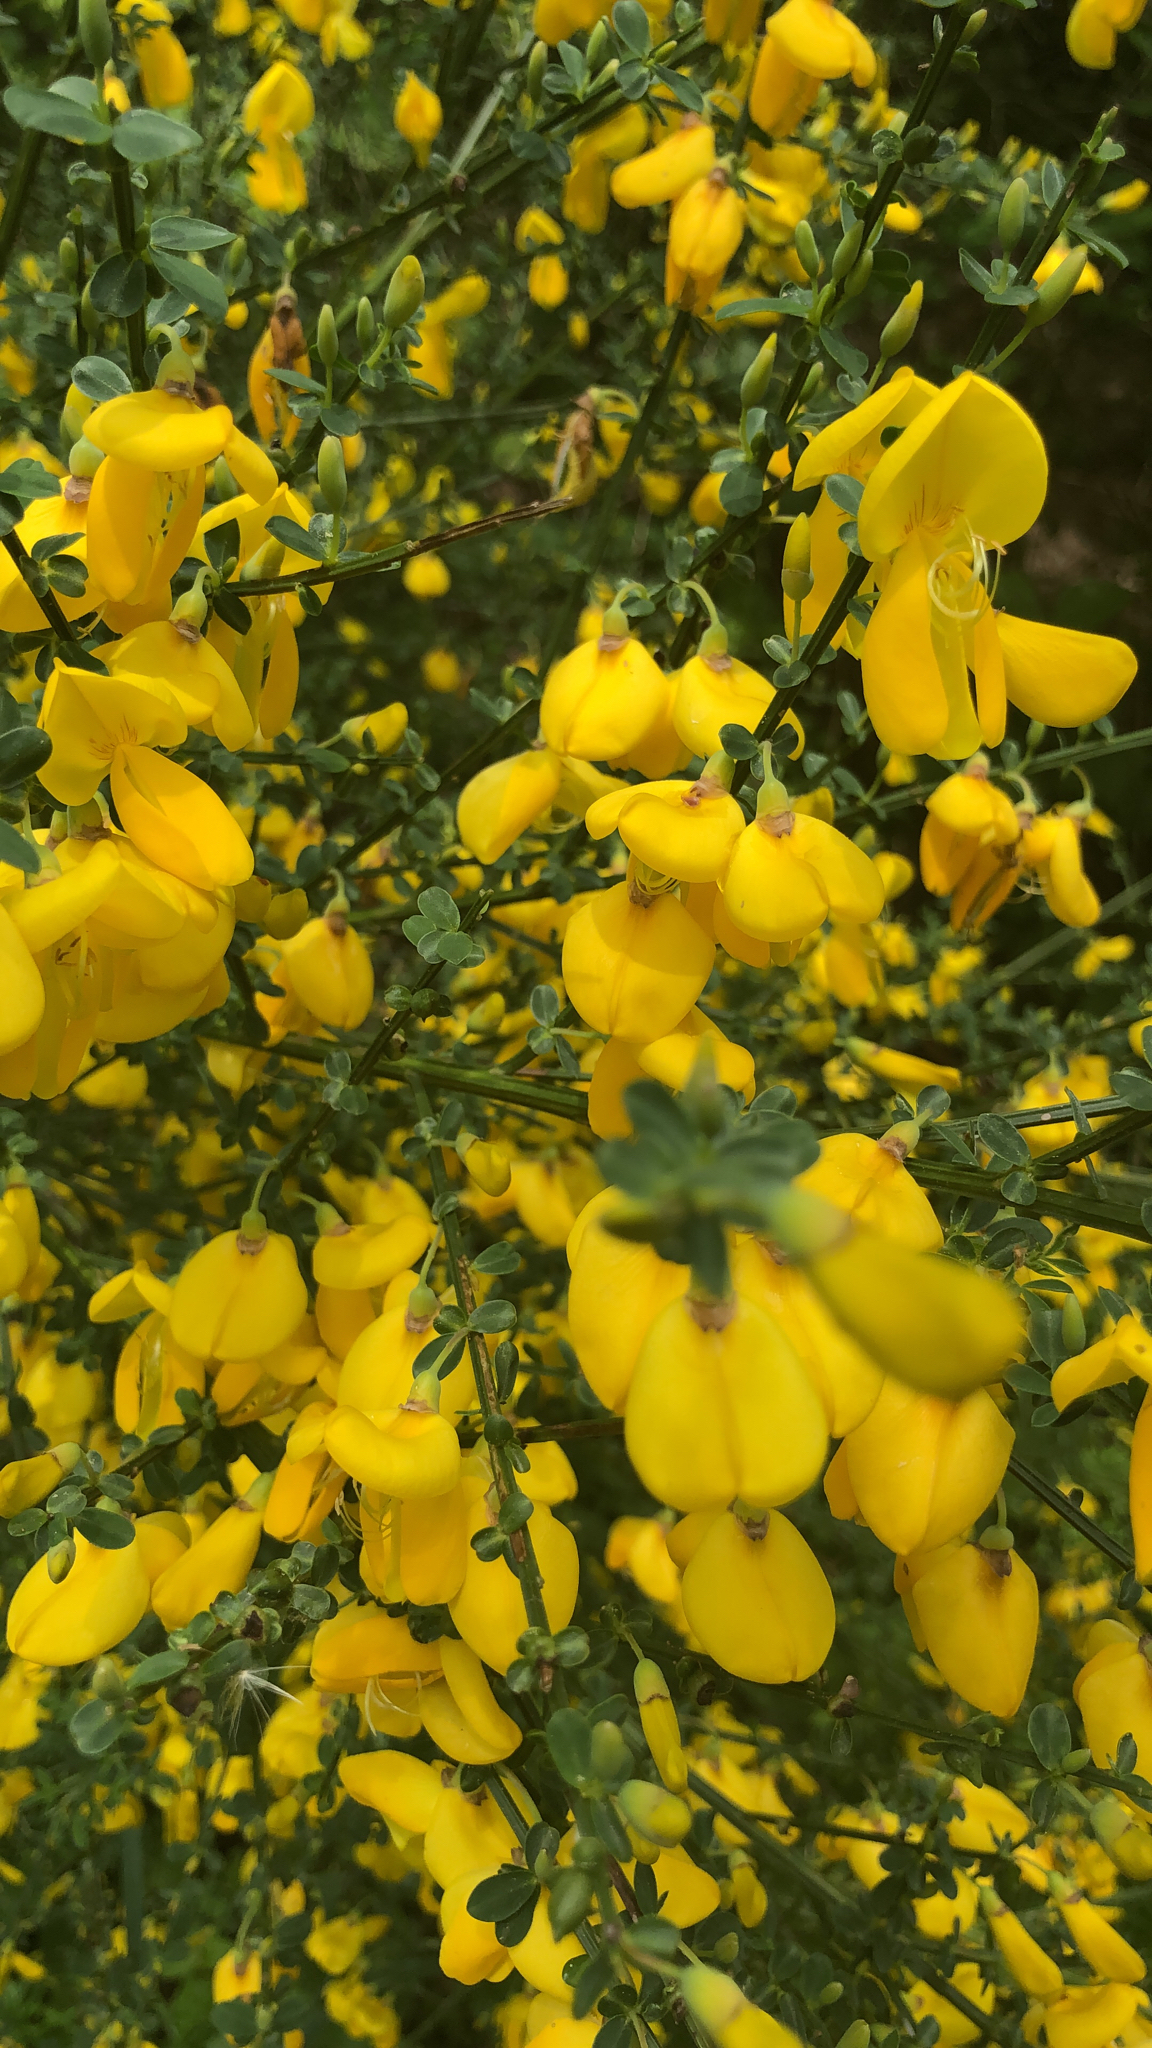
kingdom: Plantae
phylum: Tracheophyta
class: Magnoliopsida
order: Fabales
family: Fabaceae
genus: Cytisus
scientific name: Cytisus scoparius
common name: Scotch broom
